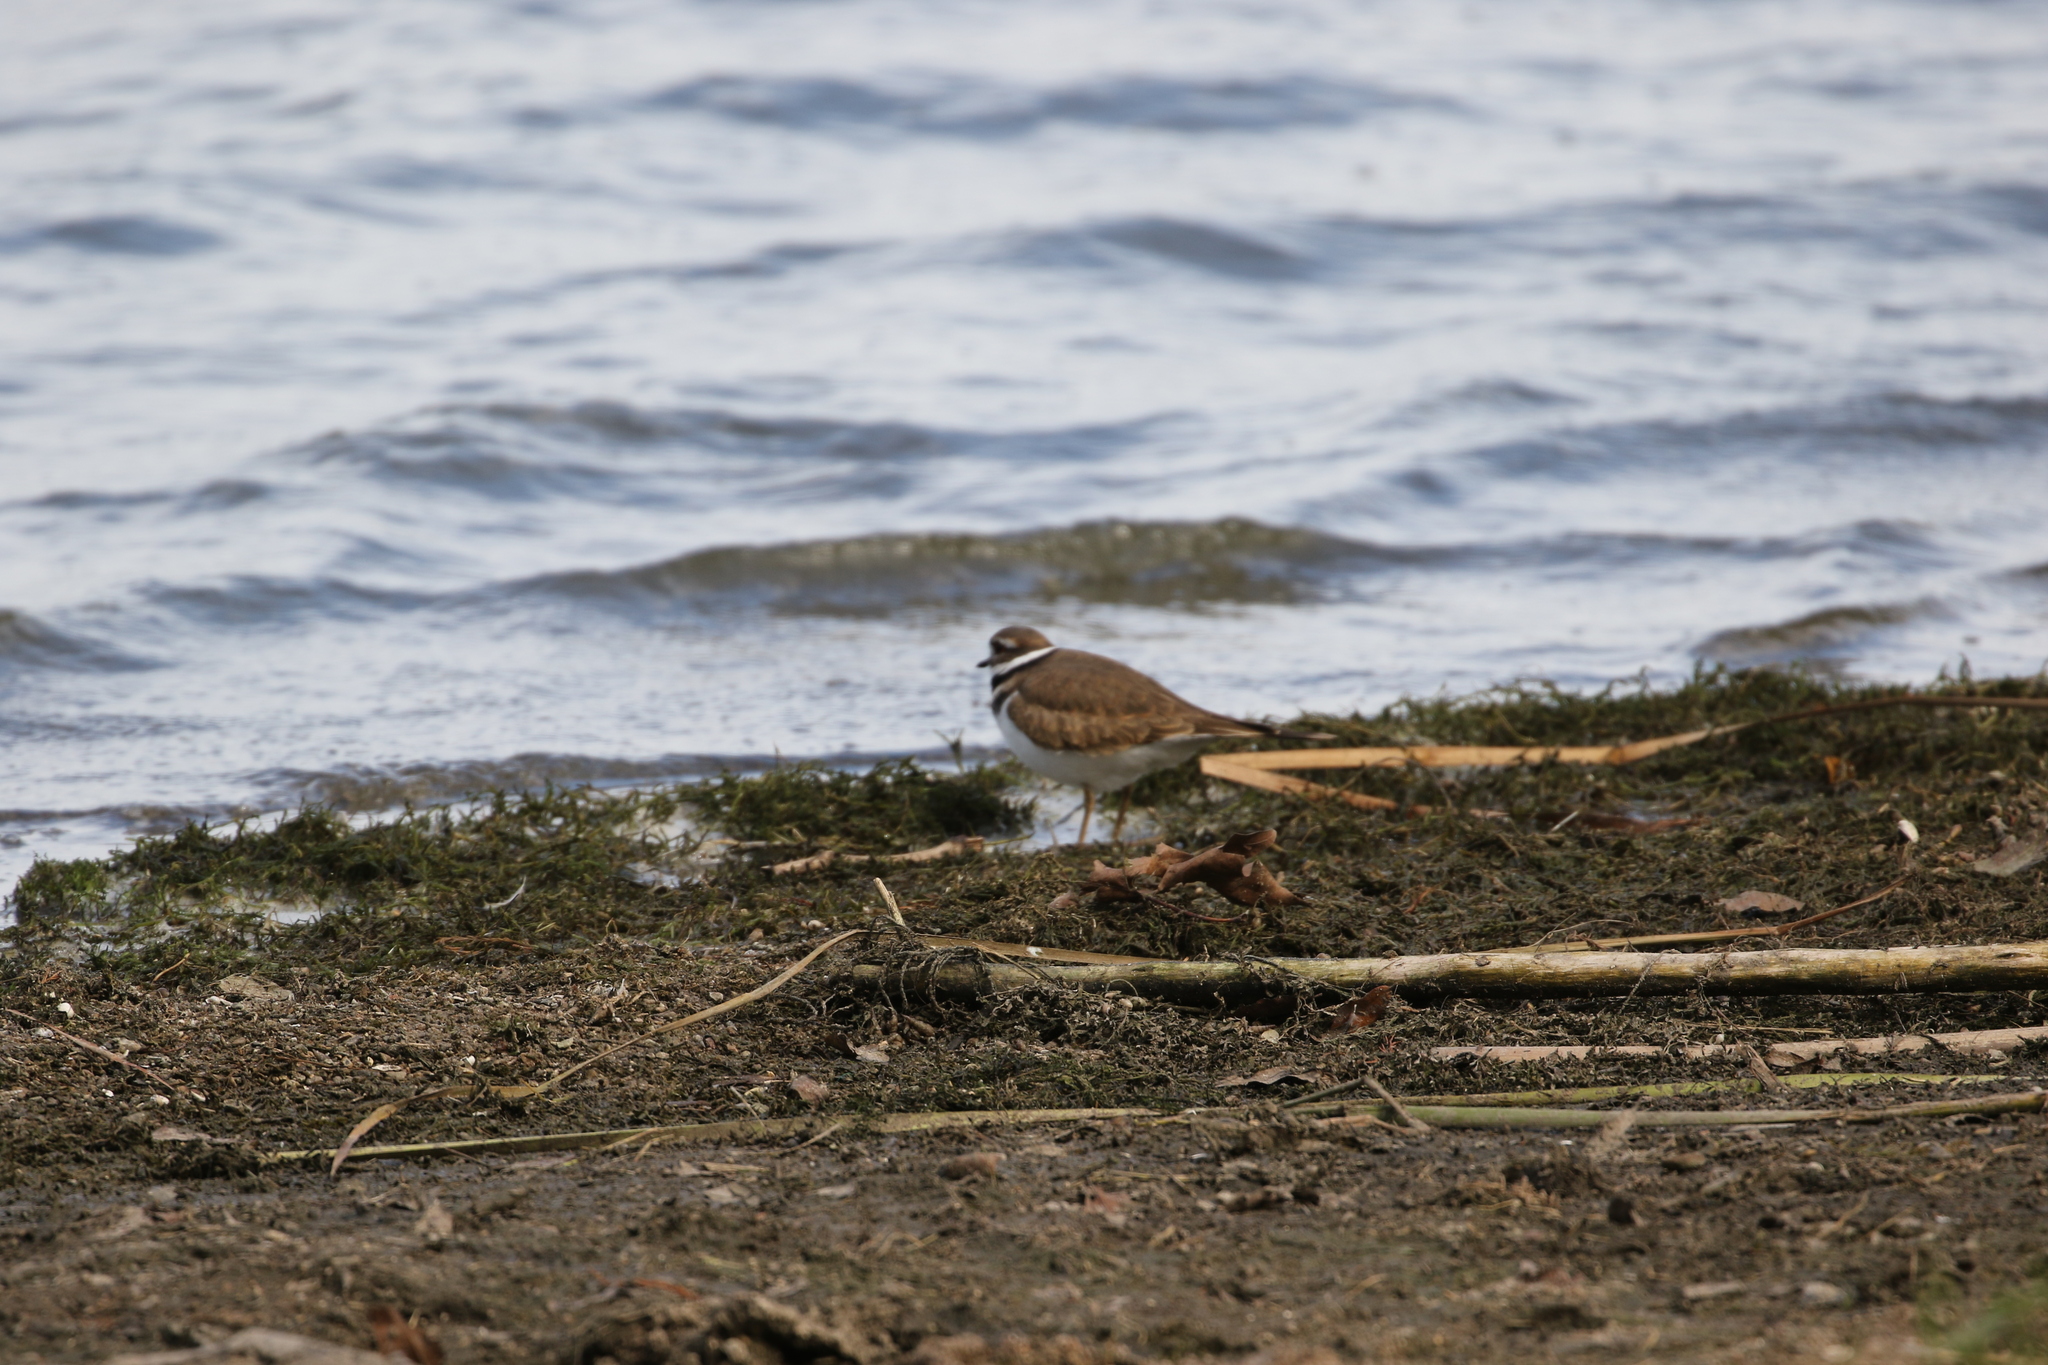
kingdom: Animalia
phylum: Chordata
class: Aves
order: Charadriiformes
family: Charadriidae
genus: Charadrius
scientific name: Charadrius vociferus
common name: Killdeer
